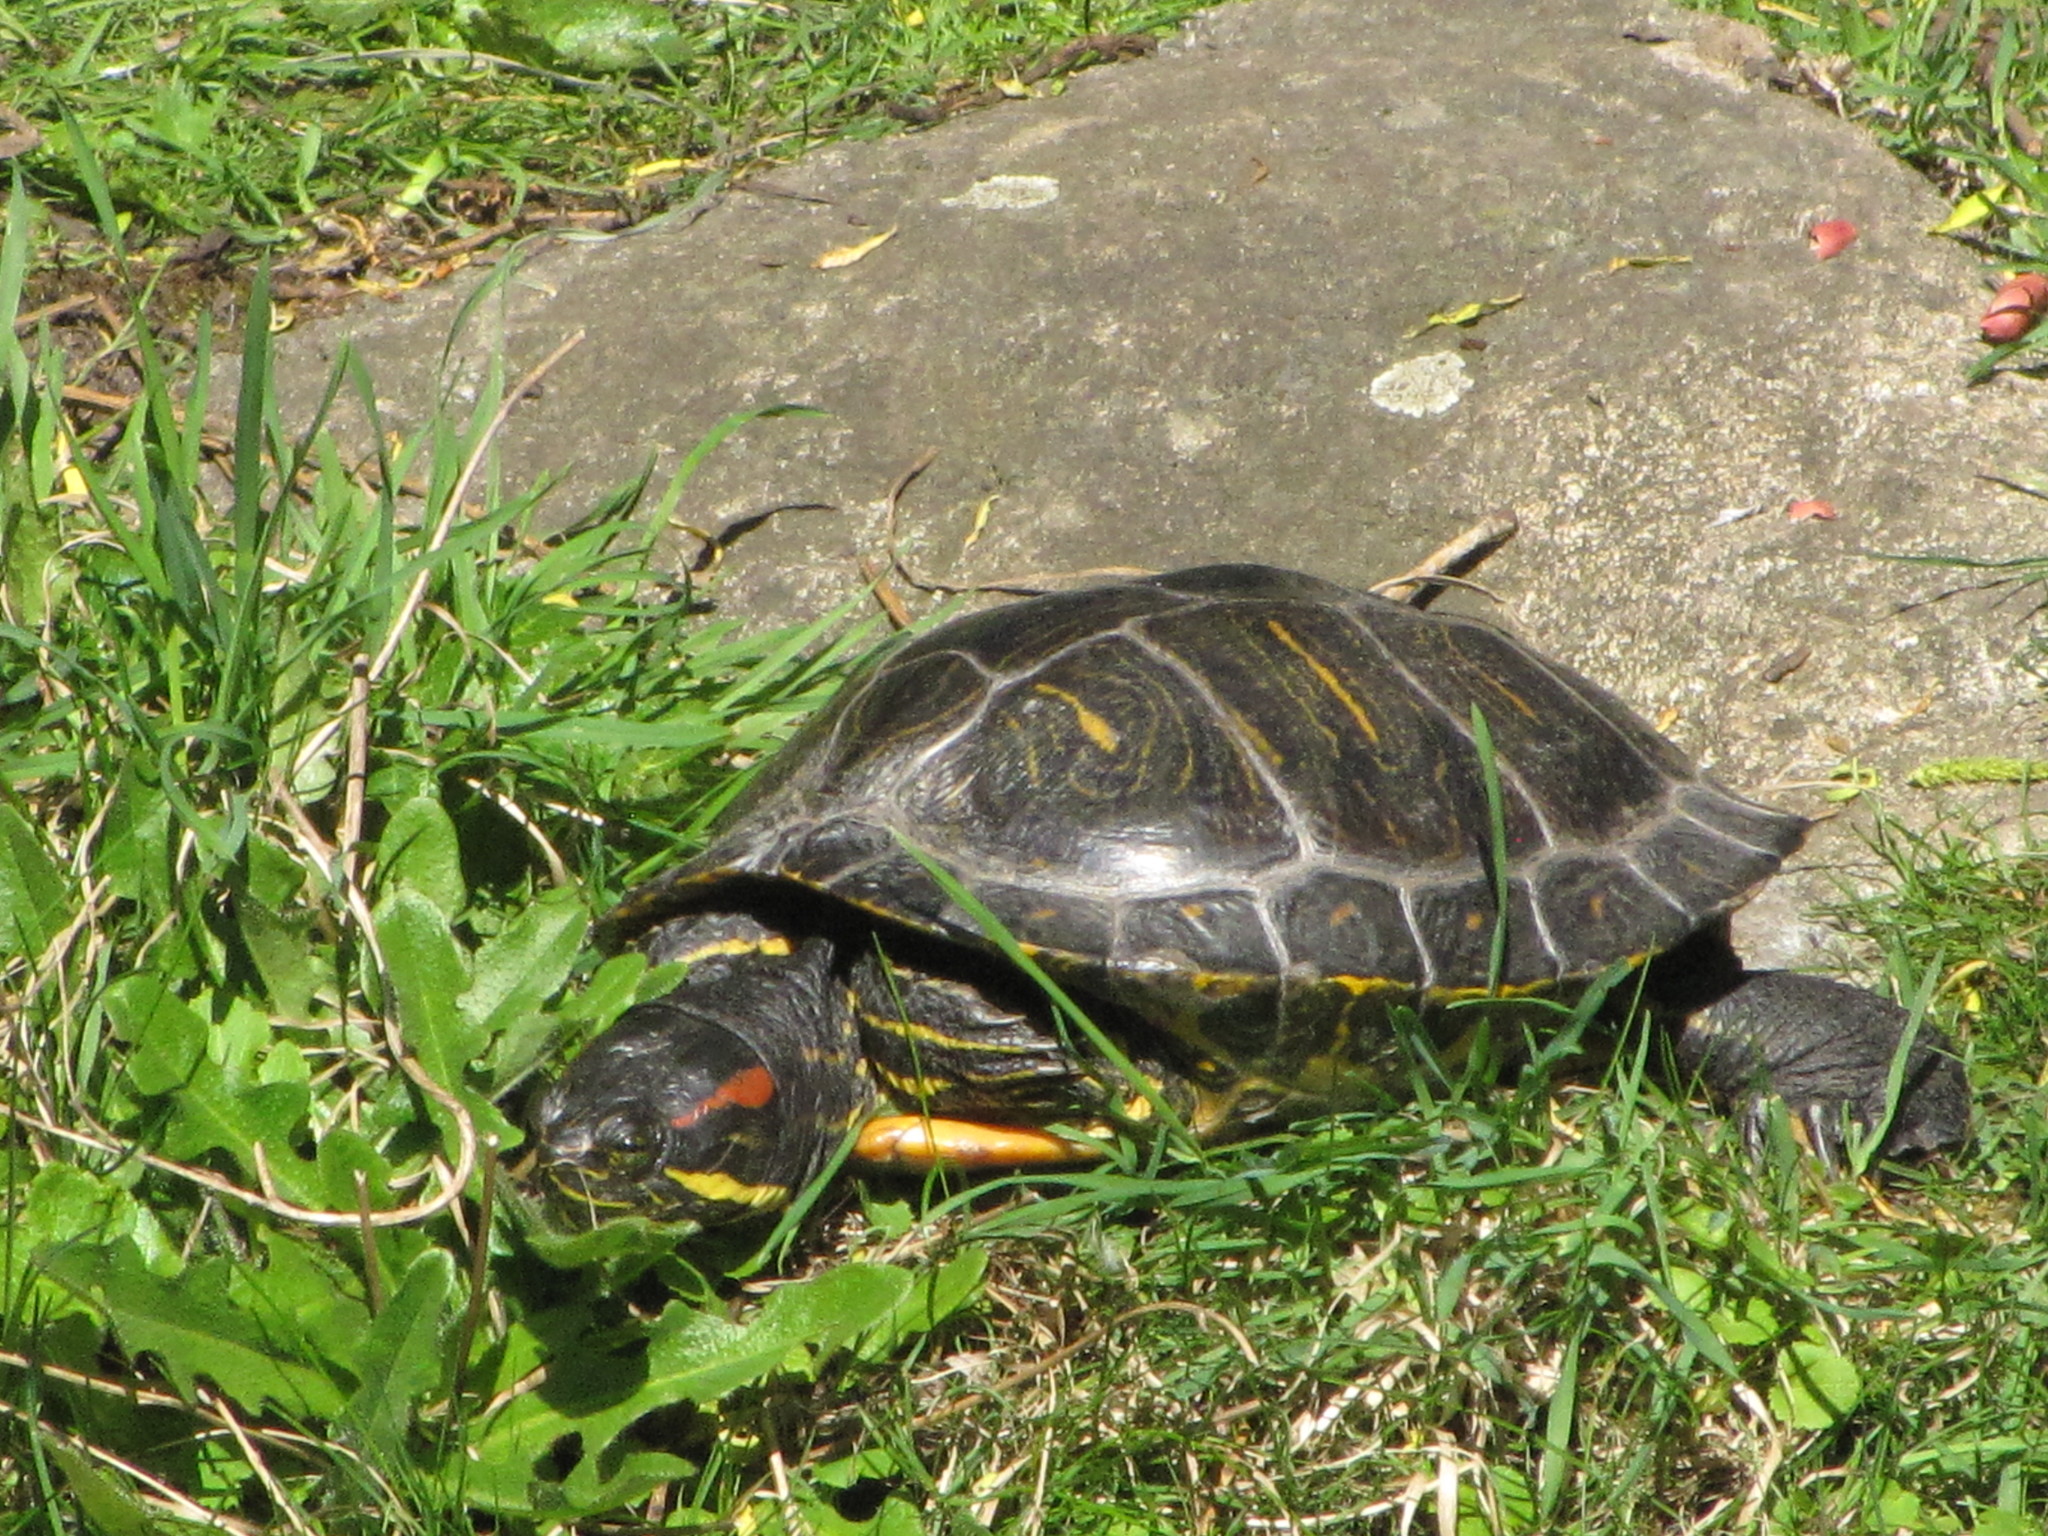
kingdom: Animalia
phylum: Chordata
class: Testudines
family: Emydidae
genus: Trachemys
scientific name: Trachemys scripta
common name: Slider
